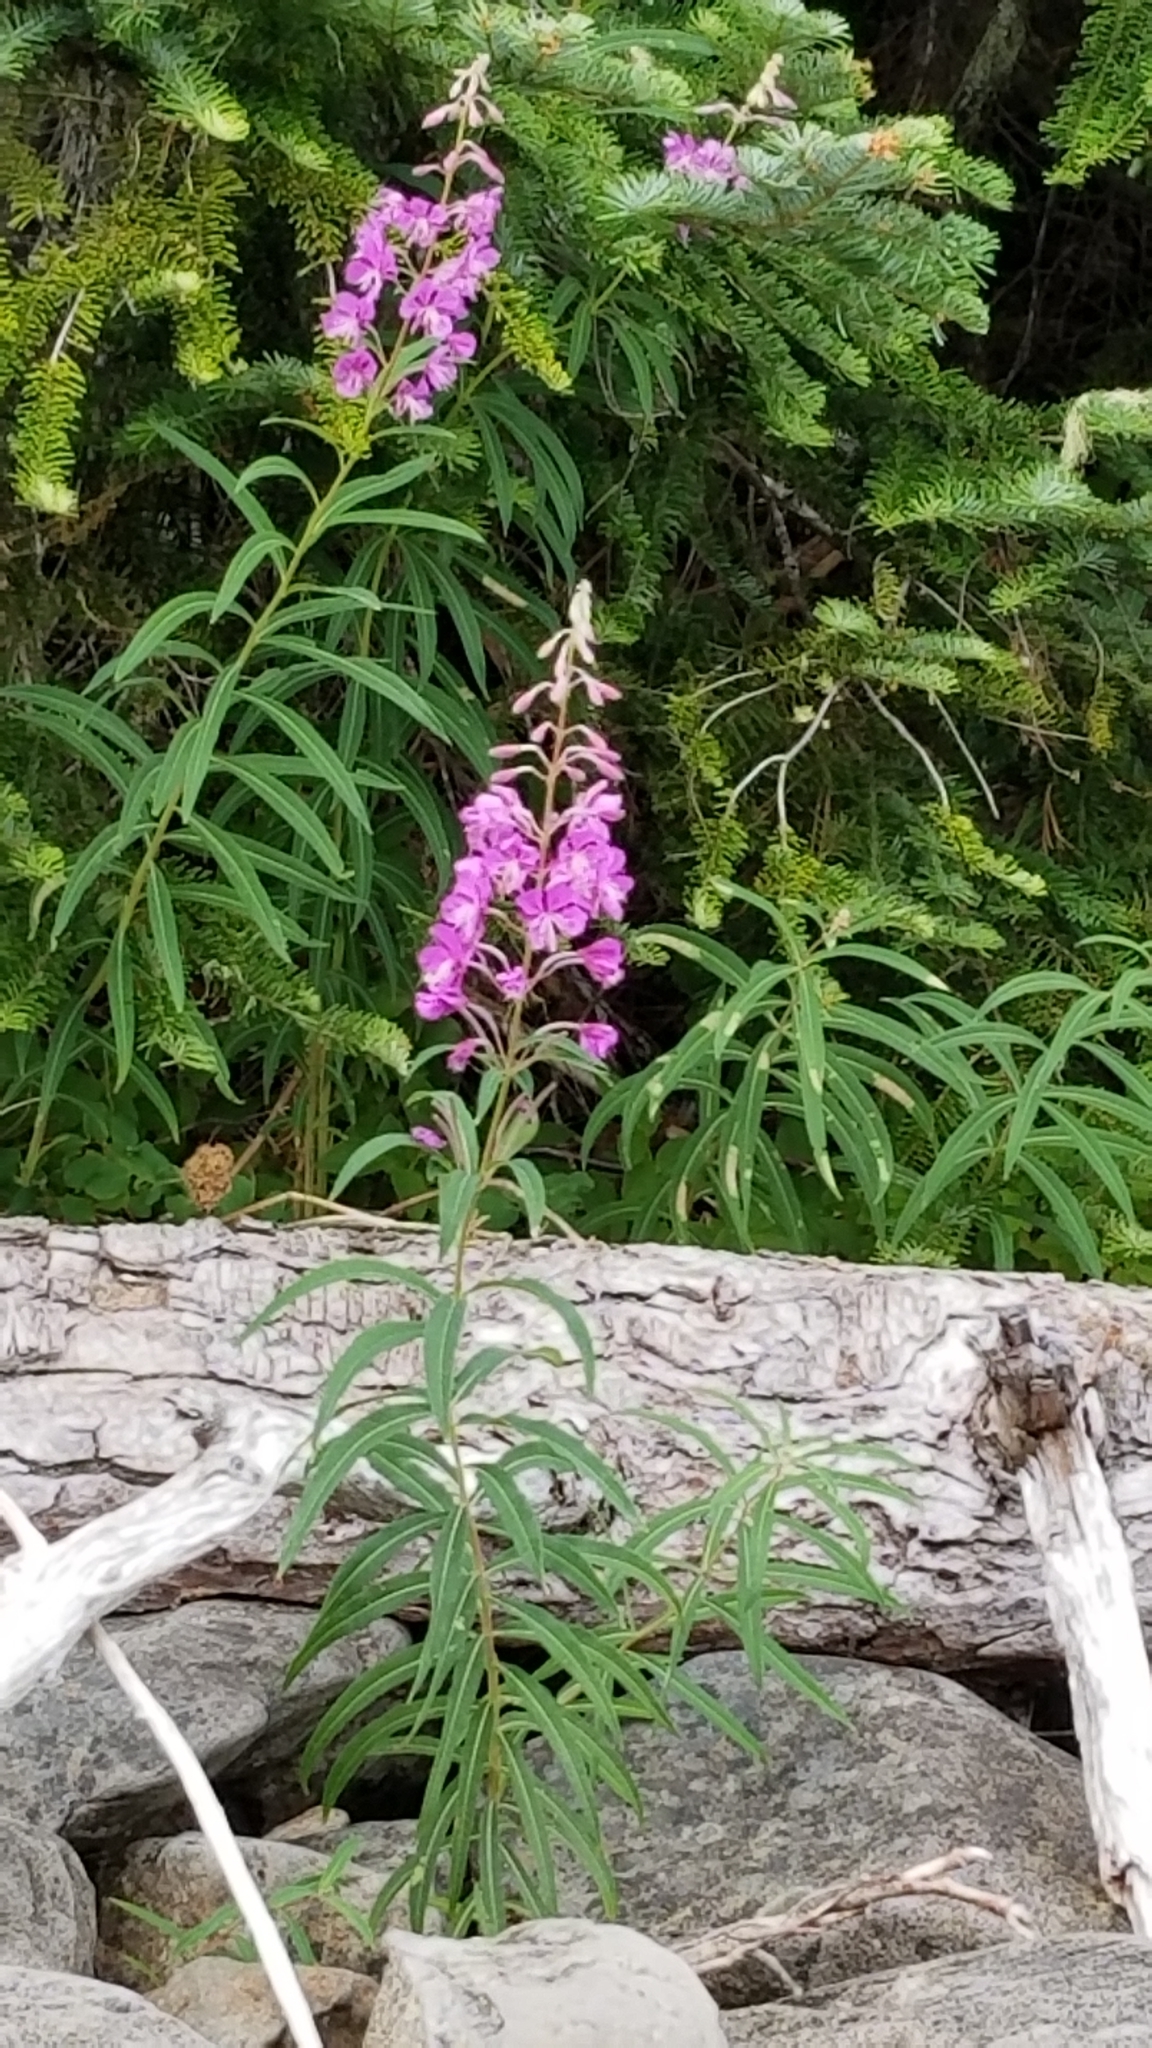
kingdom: Plantae
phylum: Tracheophyta
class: Magnoliopsida
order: Myrtales
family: Onagraceae
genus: Chamaenerion
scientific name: Chamaenerion angustifolium
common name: Fireweed
